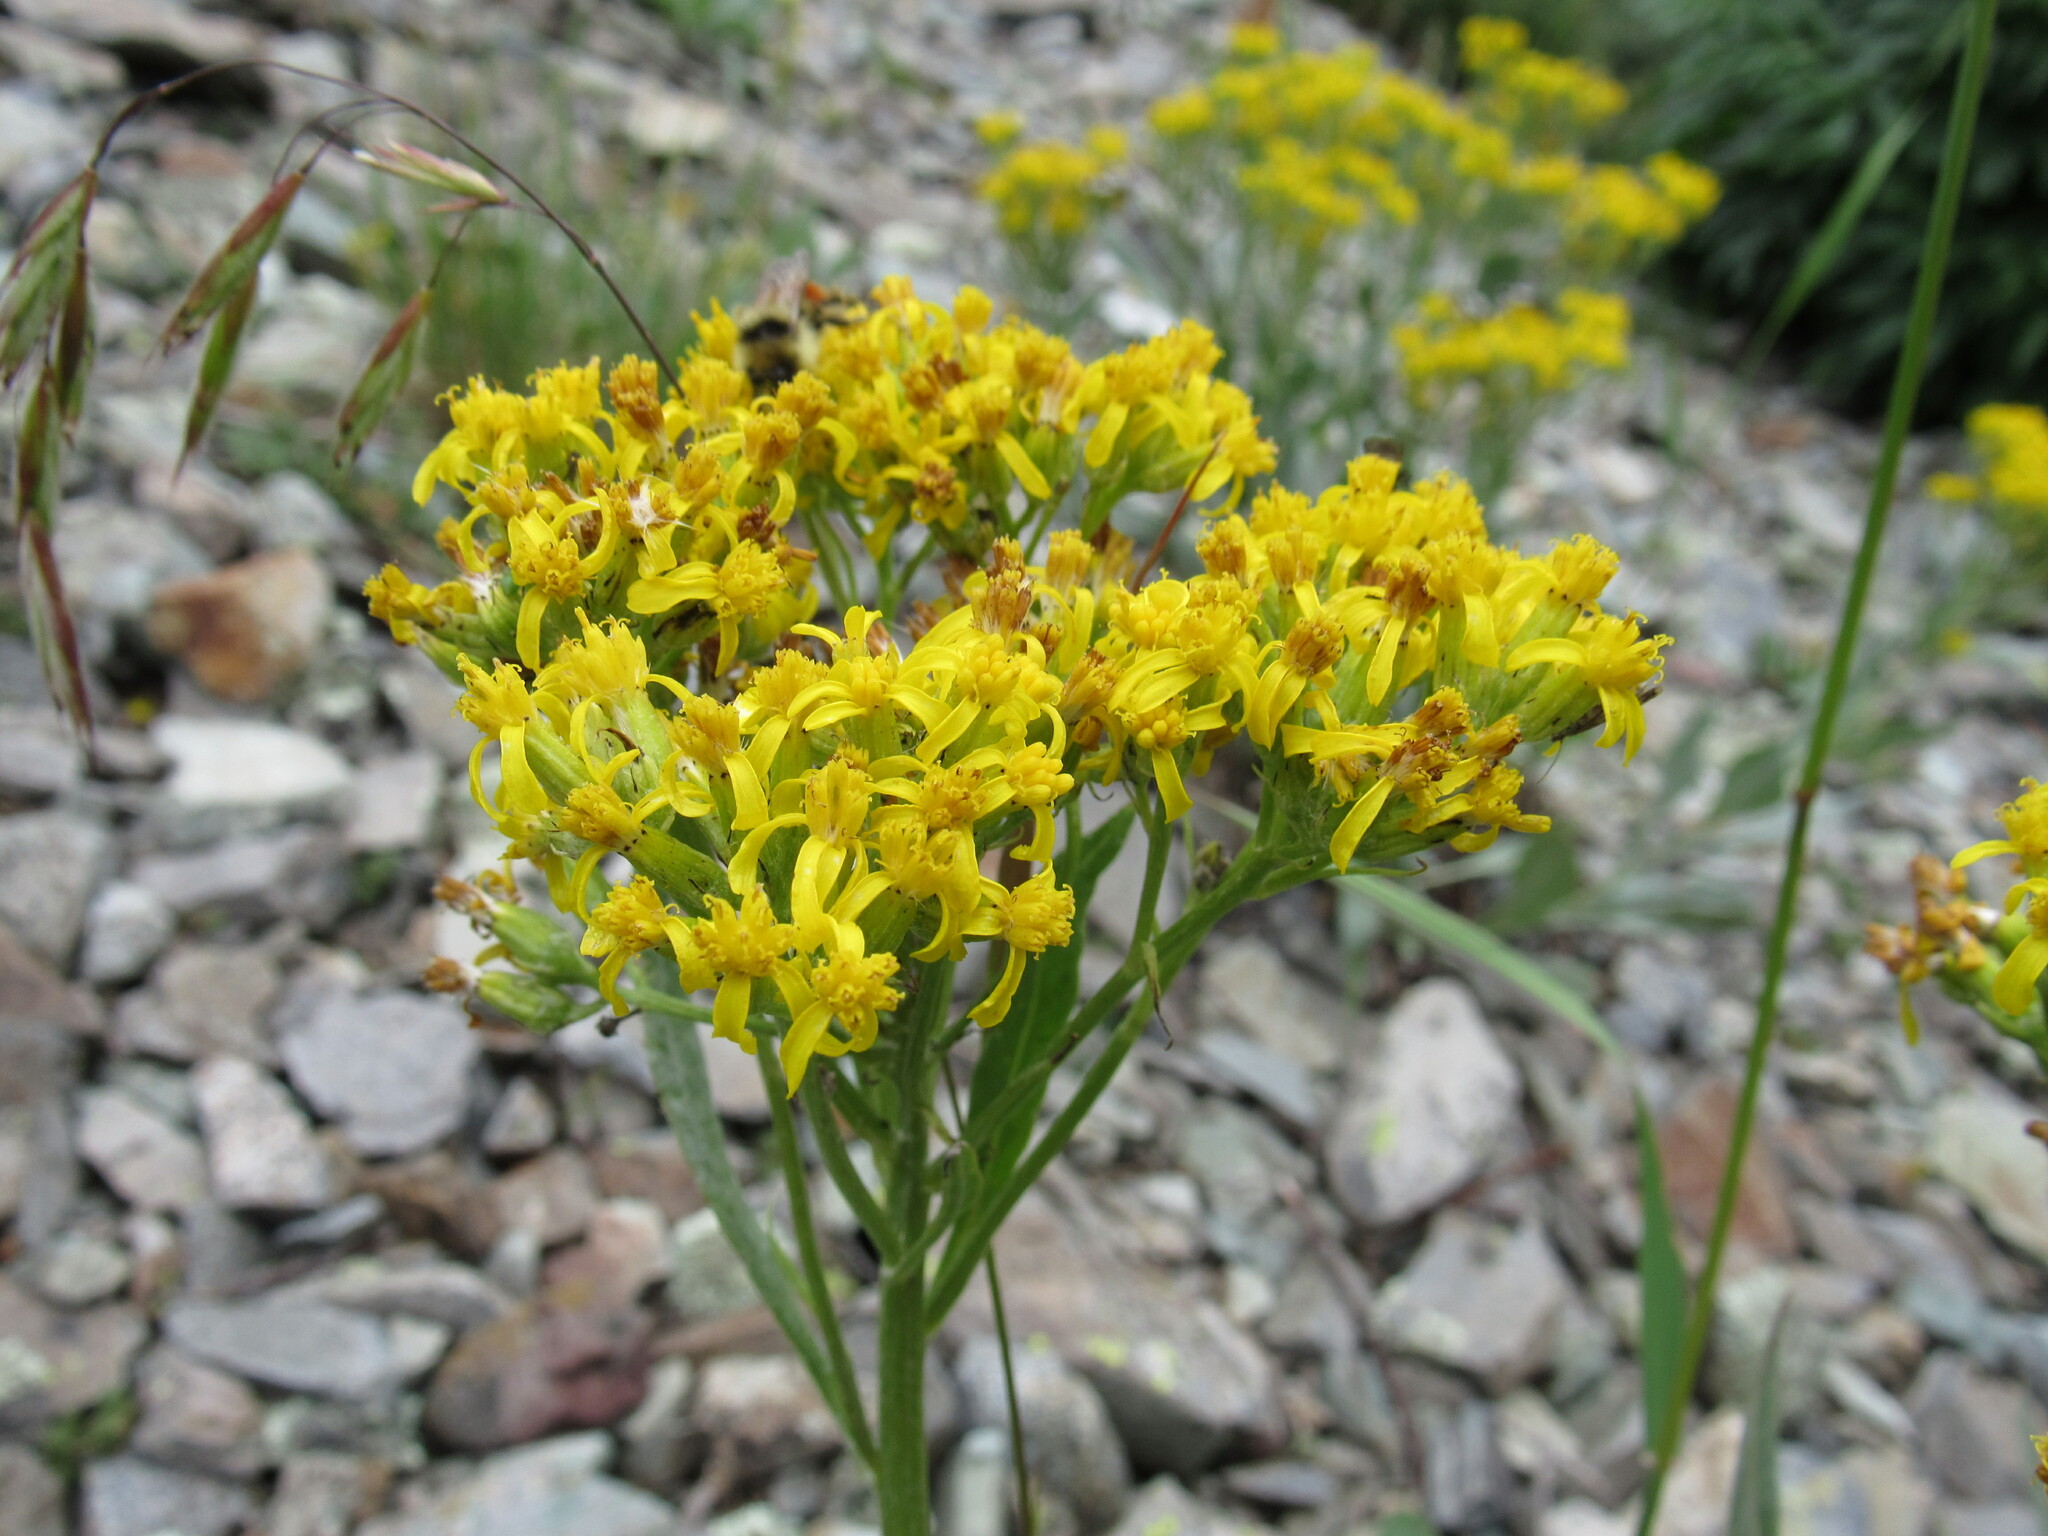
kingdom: Plantae
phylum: Tracheophyta
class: Magnoliopsida
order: Asterales
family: Asteraceae
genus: Senecio
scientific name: Senecio atratus
